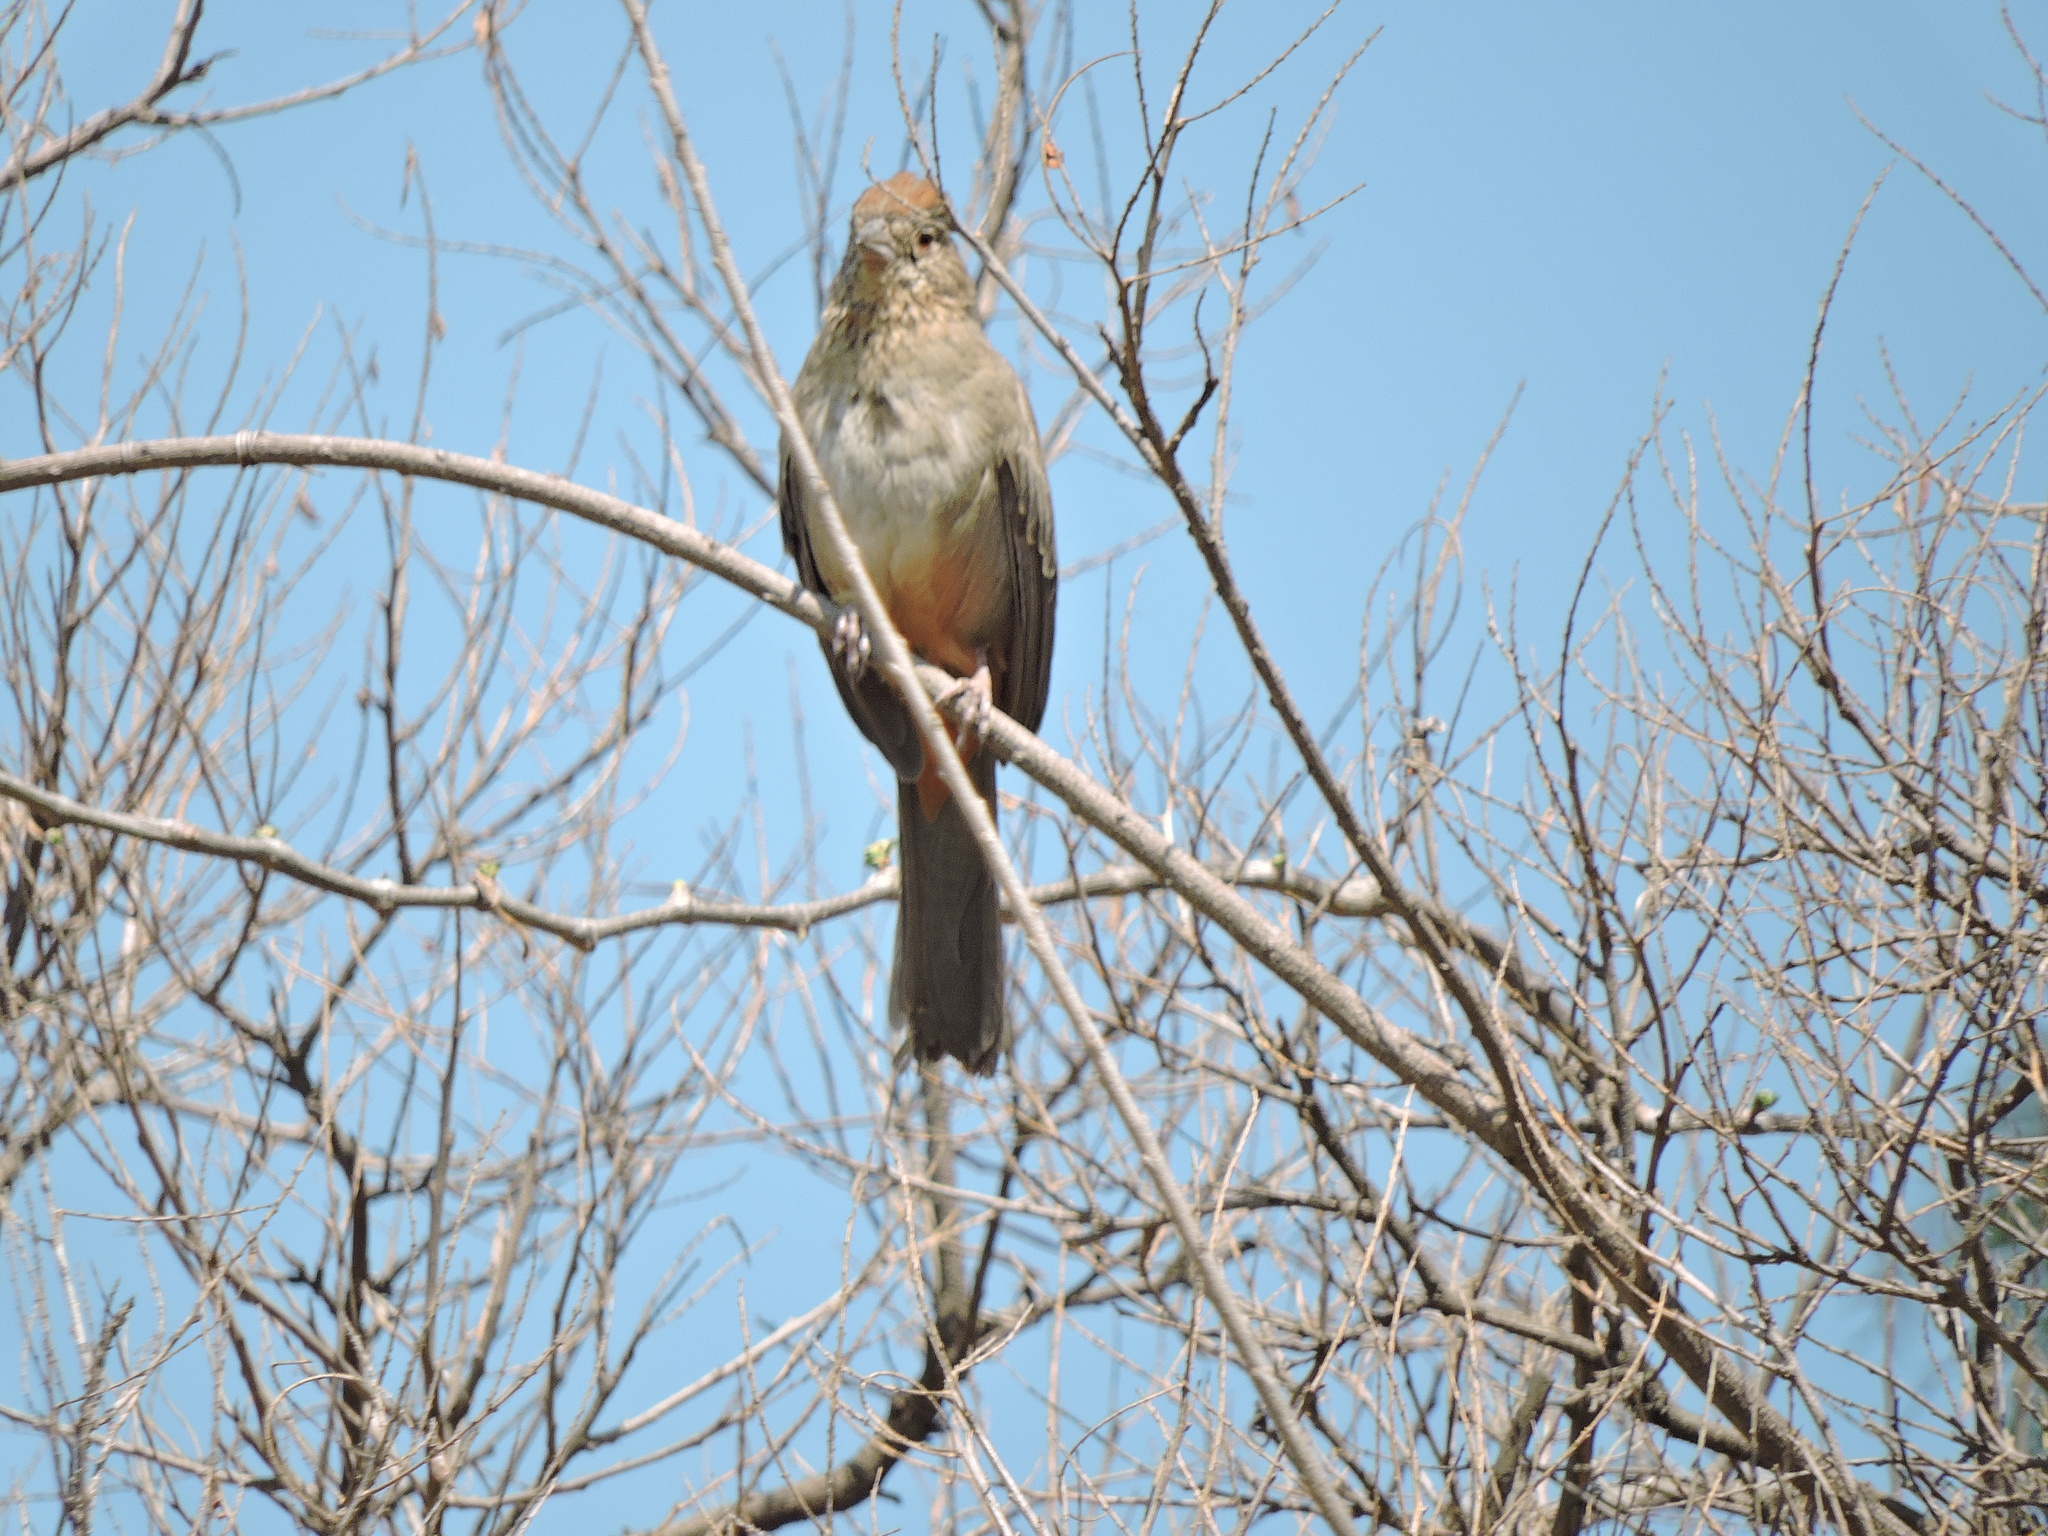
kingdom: Animalia
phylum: Chordata
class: Aves
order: Passeriformes
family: Passerellidae
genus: Melozone
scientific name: Melozone fusca
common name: Canyon towhee
